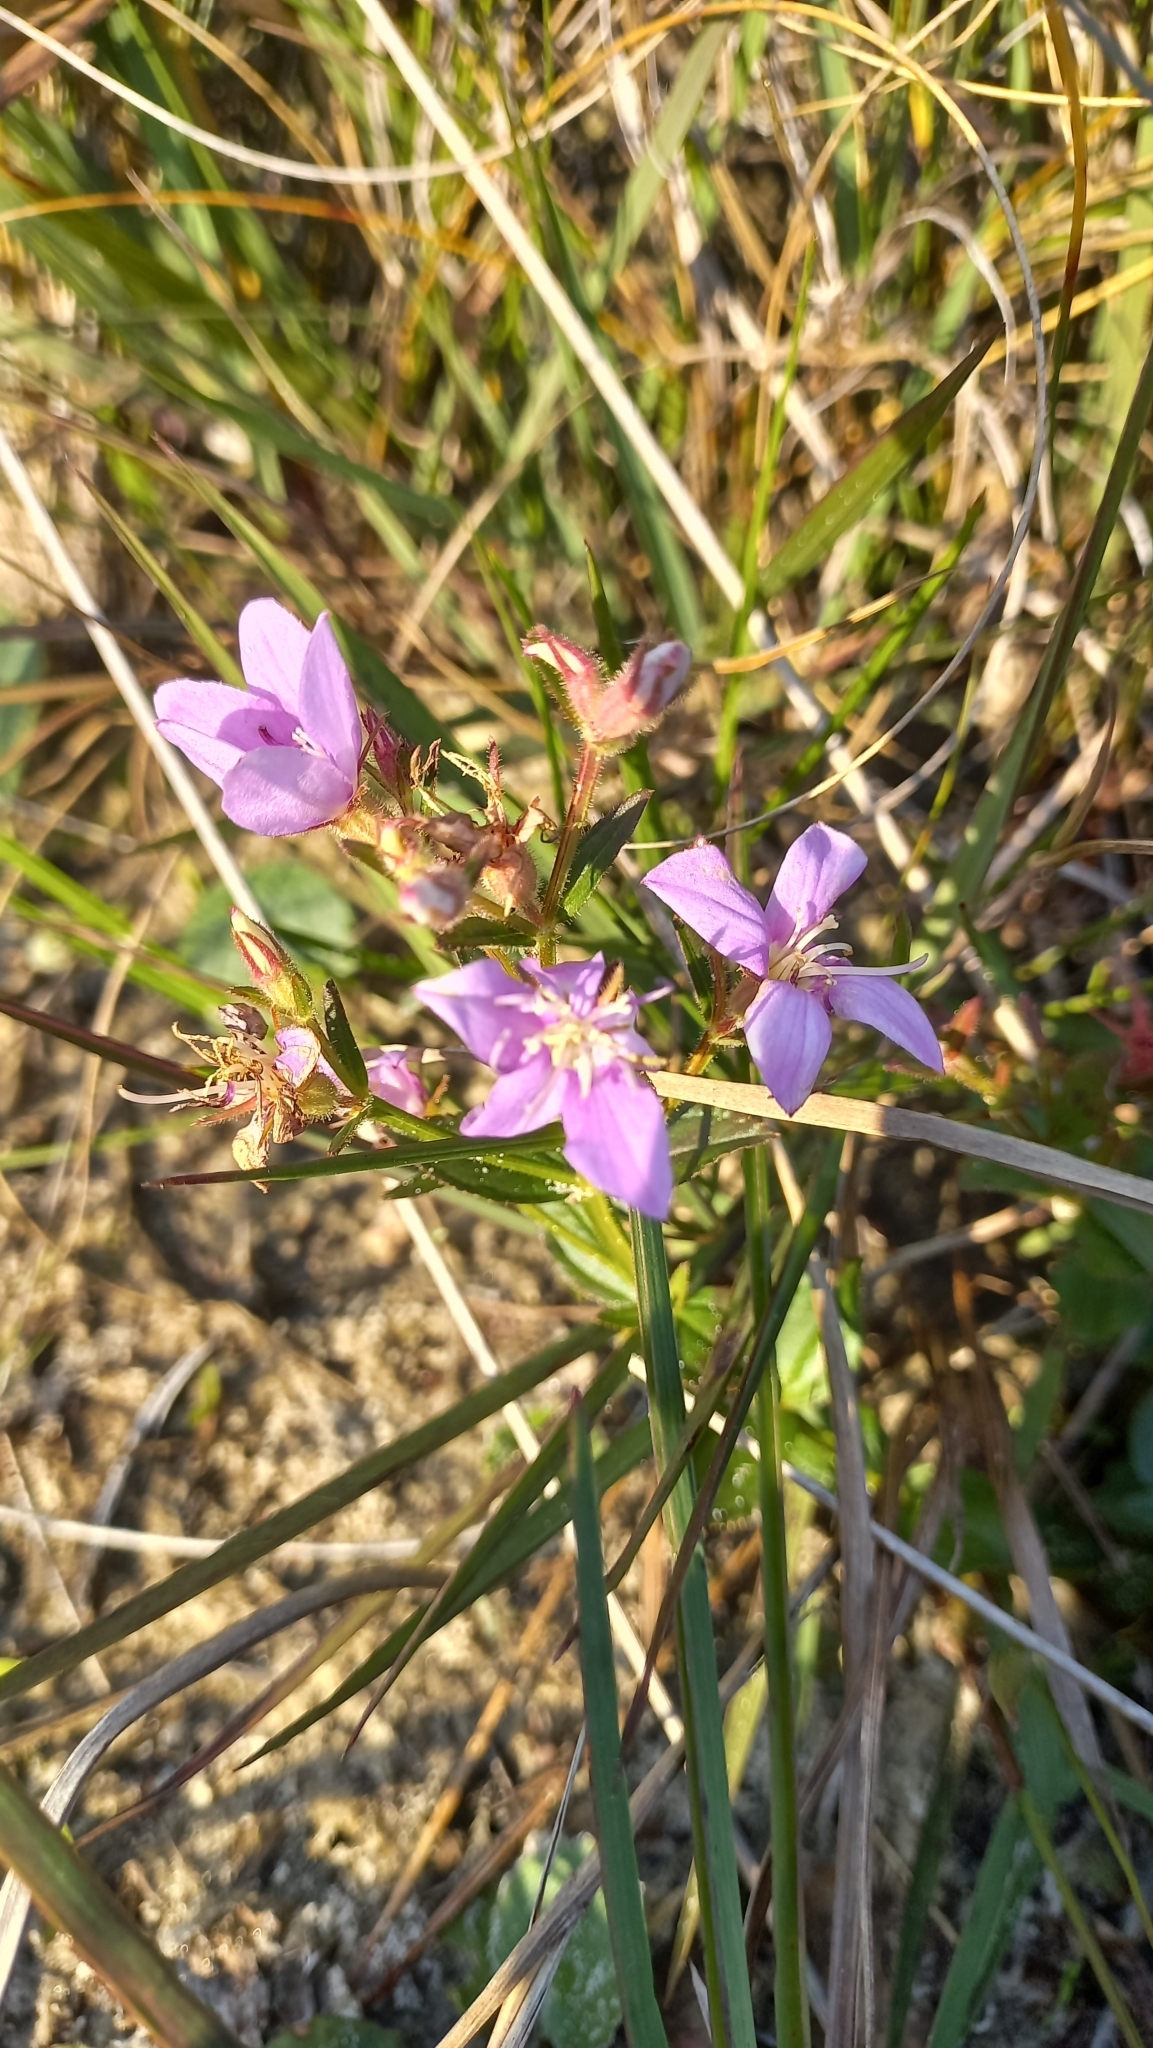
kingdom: Plantae
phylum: Tracheophyta
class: Magnoliopsida
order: Myrtales
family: Melastomataceae
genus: Acisanthera
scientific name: Acisanthera alsinaefolia
